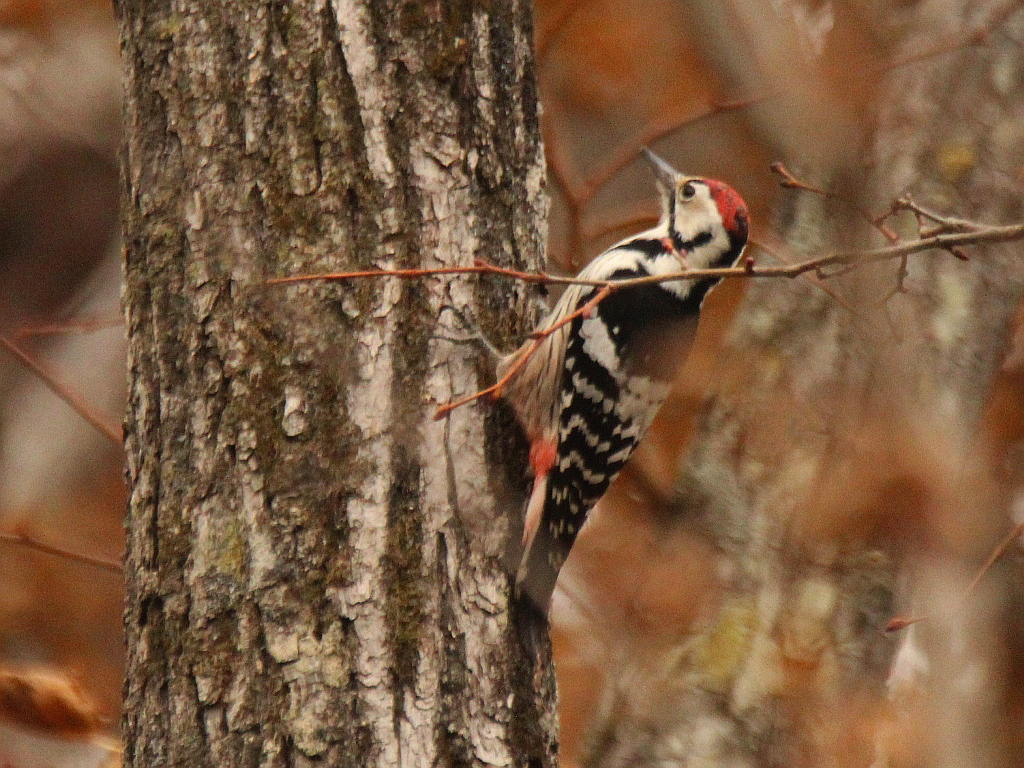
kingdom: Animalia
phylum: Chordata
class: Aves
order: Piciformes
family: Picidae
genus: Dendrocopos
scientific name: Dendrocopos leucotos
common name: White-backed woodpecker
